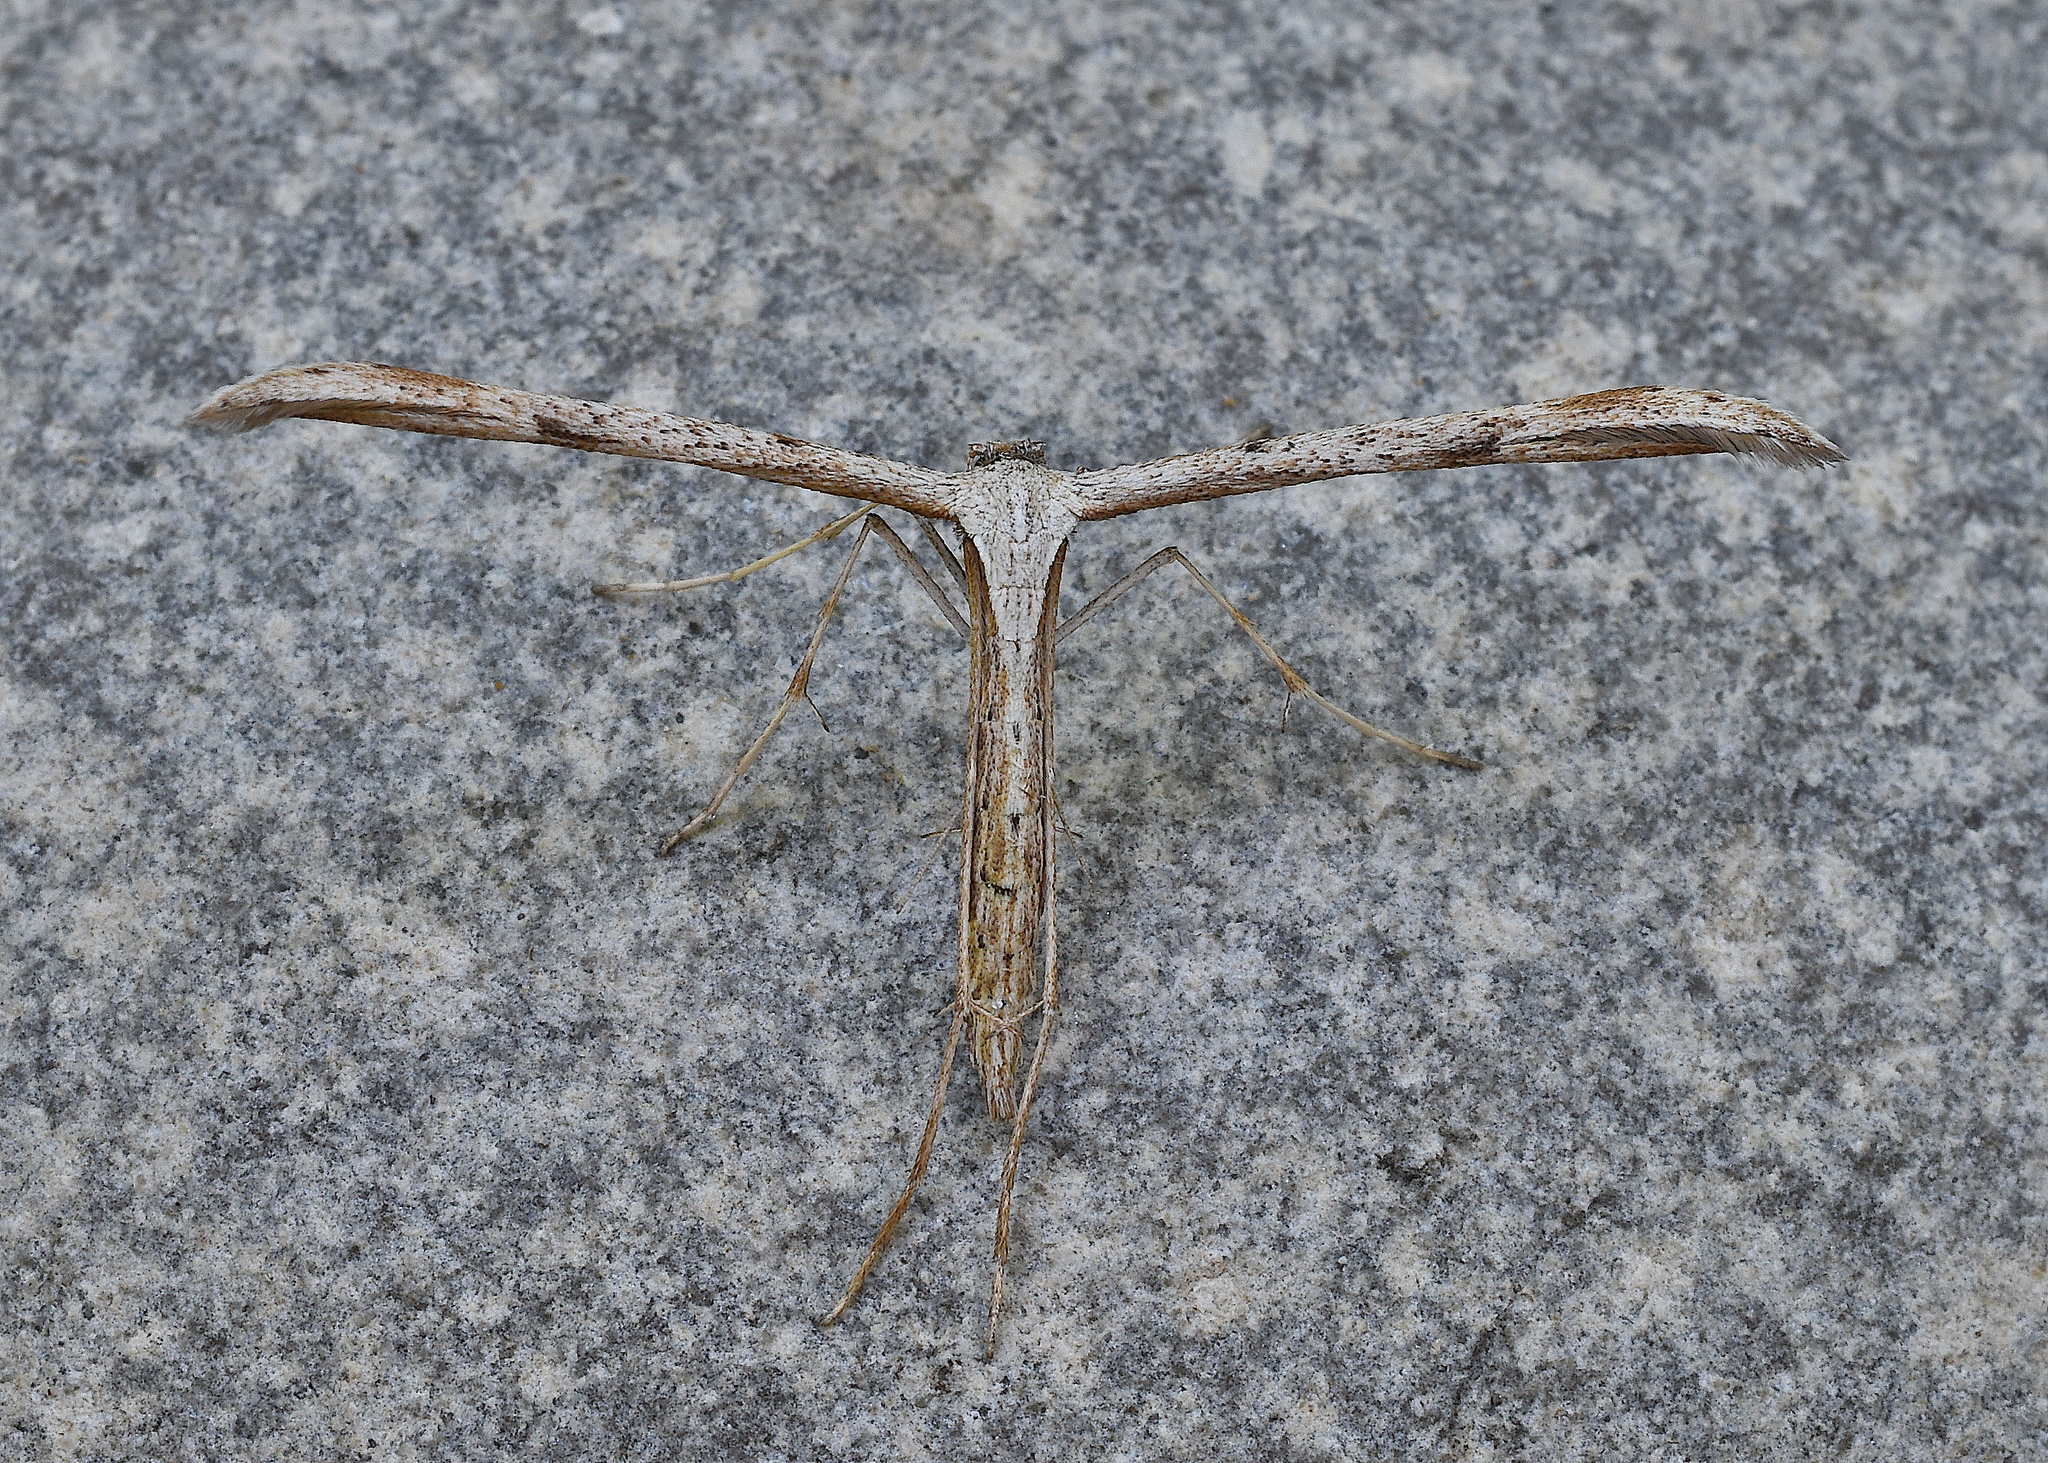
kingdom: Animalia
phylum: Arthropoda
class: Insecta
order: Lepidoptera
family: Pterophoridae
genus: Emmelina
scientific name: Emmelina monodactyla
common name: Common plume
